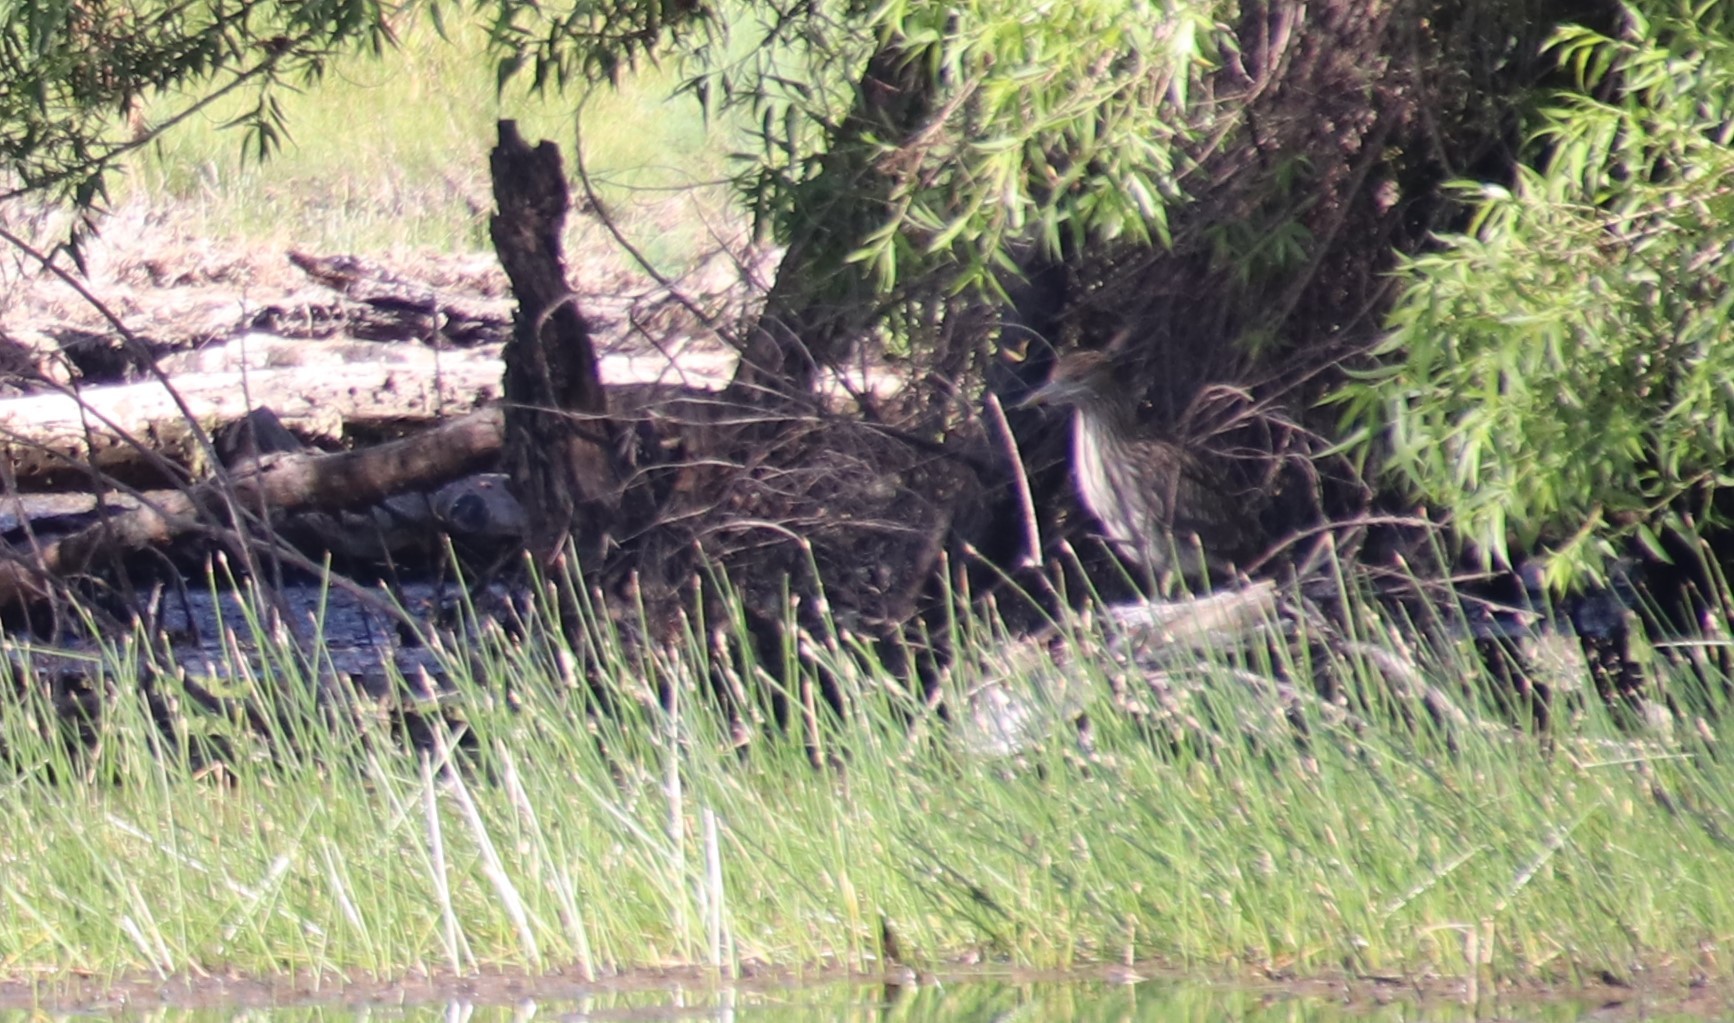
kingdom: Animalia
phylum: Chordata
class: Aves
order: Pelecaniformes
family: Ardeidae
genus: Nycticorax
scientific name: Nycticorax nycticorax
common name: Black-crowned night heron
